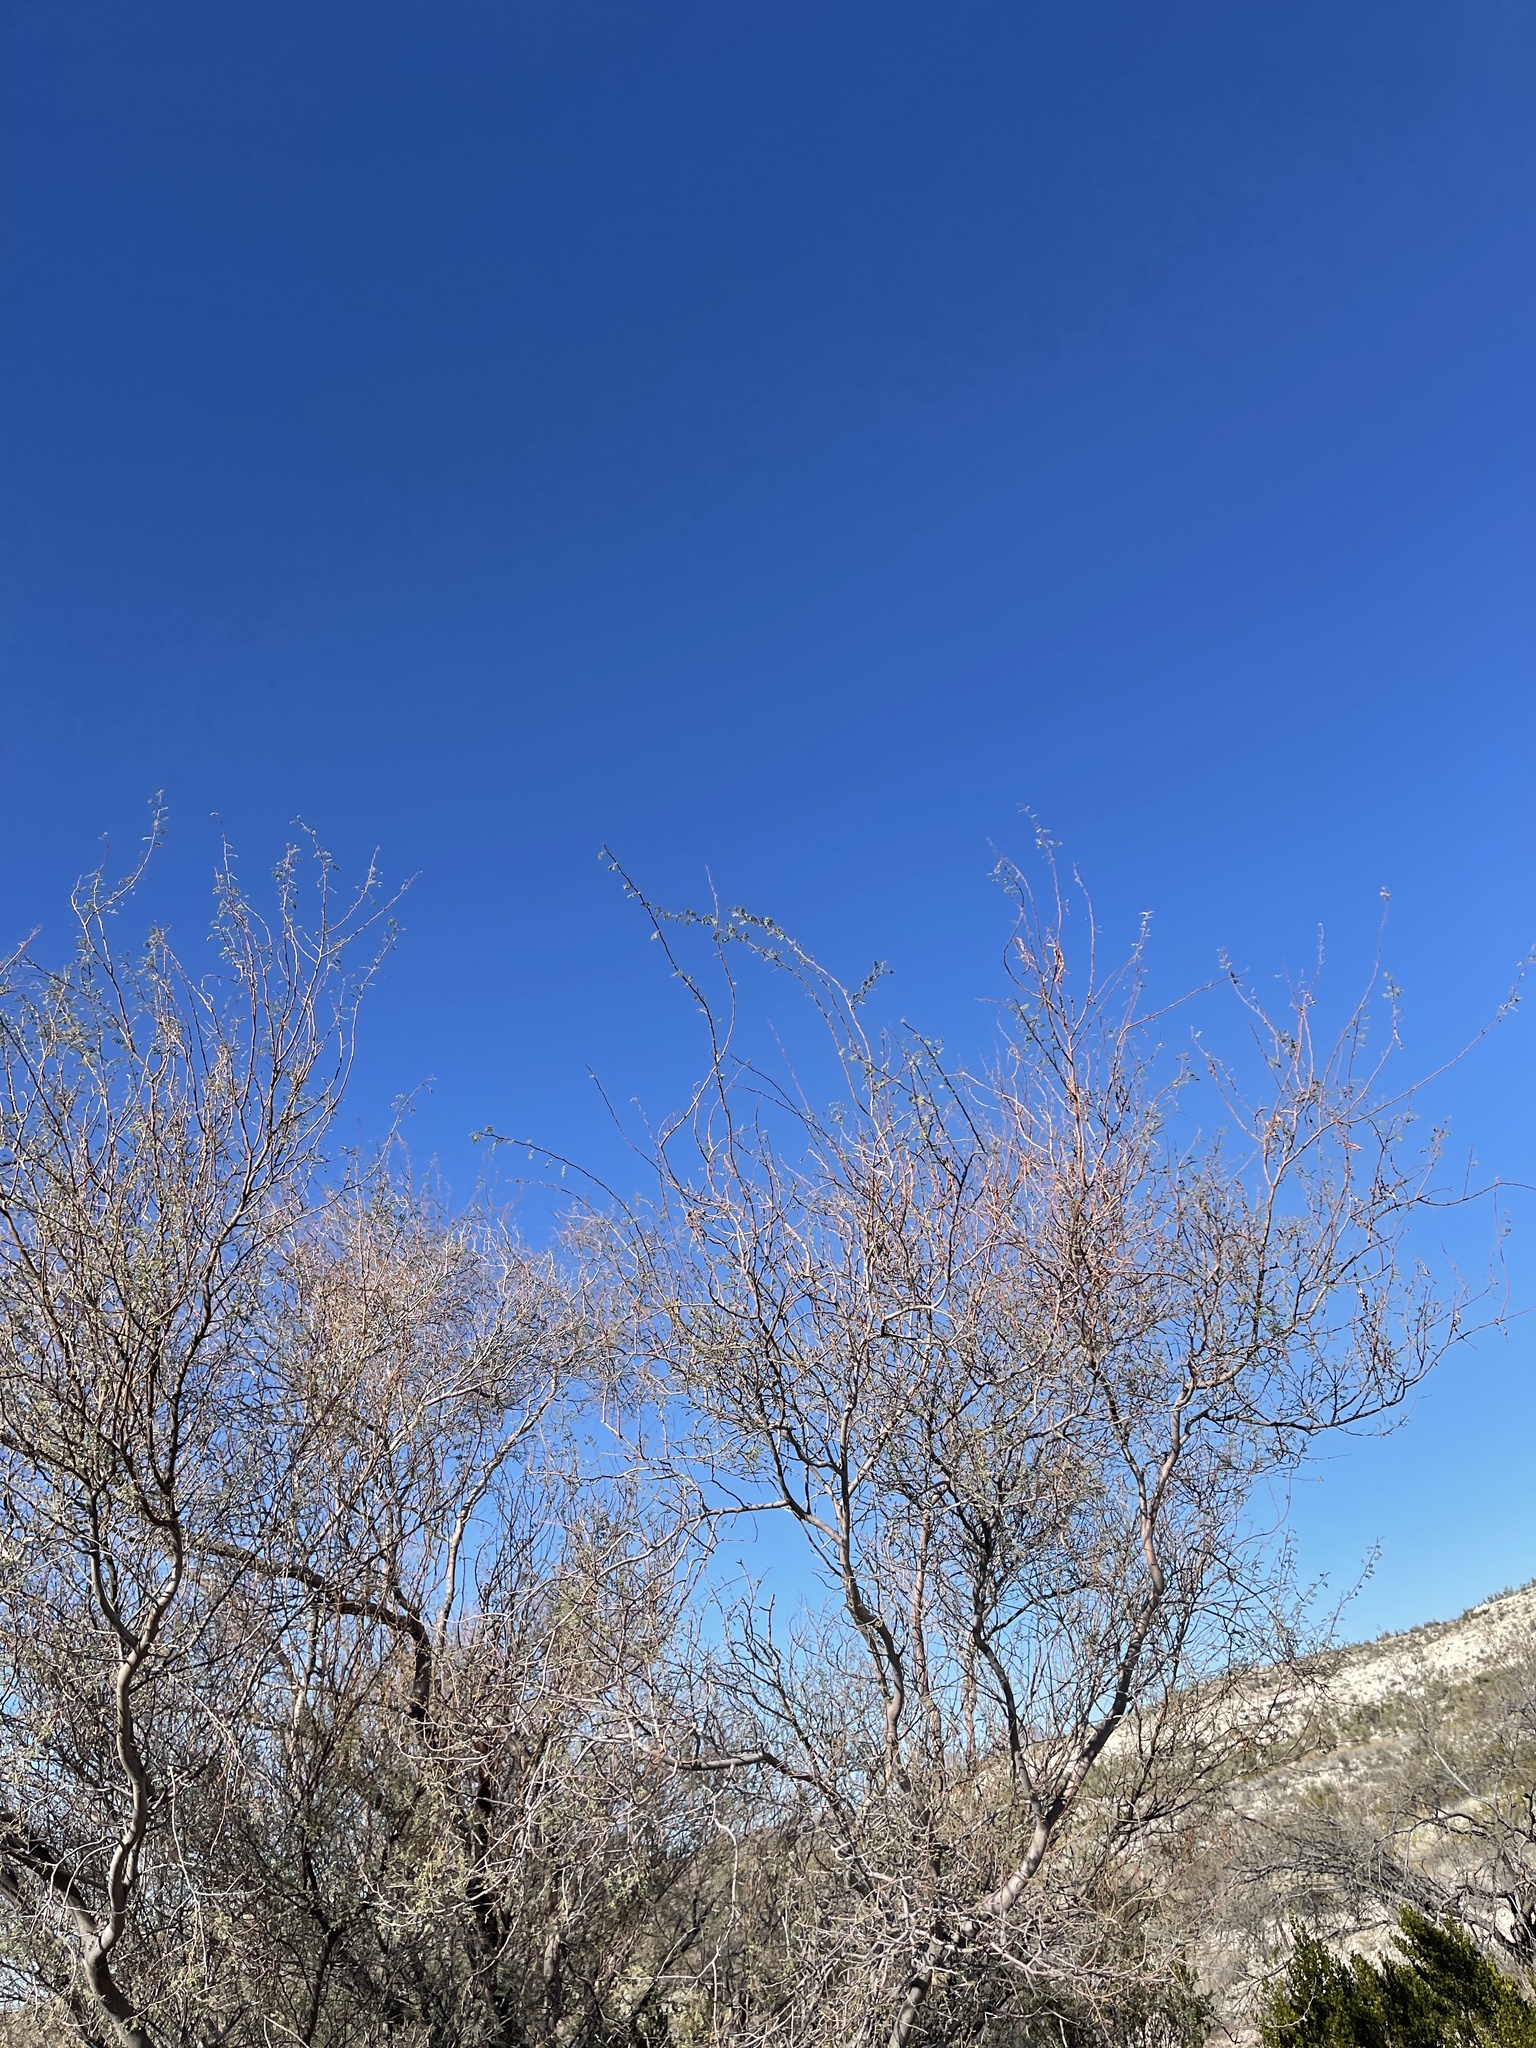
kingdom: Plantae
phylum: Tracheophyta
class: Magnoliopsida
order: Fabales
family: Fabaceae
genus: Vachellia
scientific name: Vachellia constricta
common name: Mescat acacia
